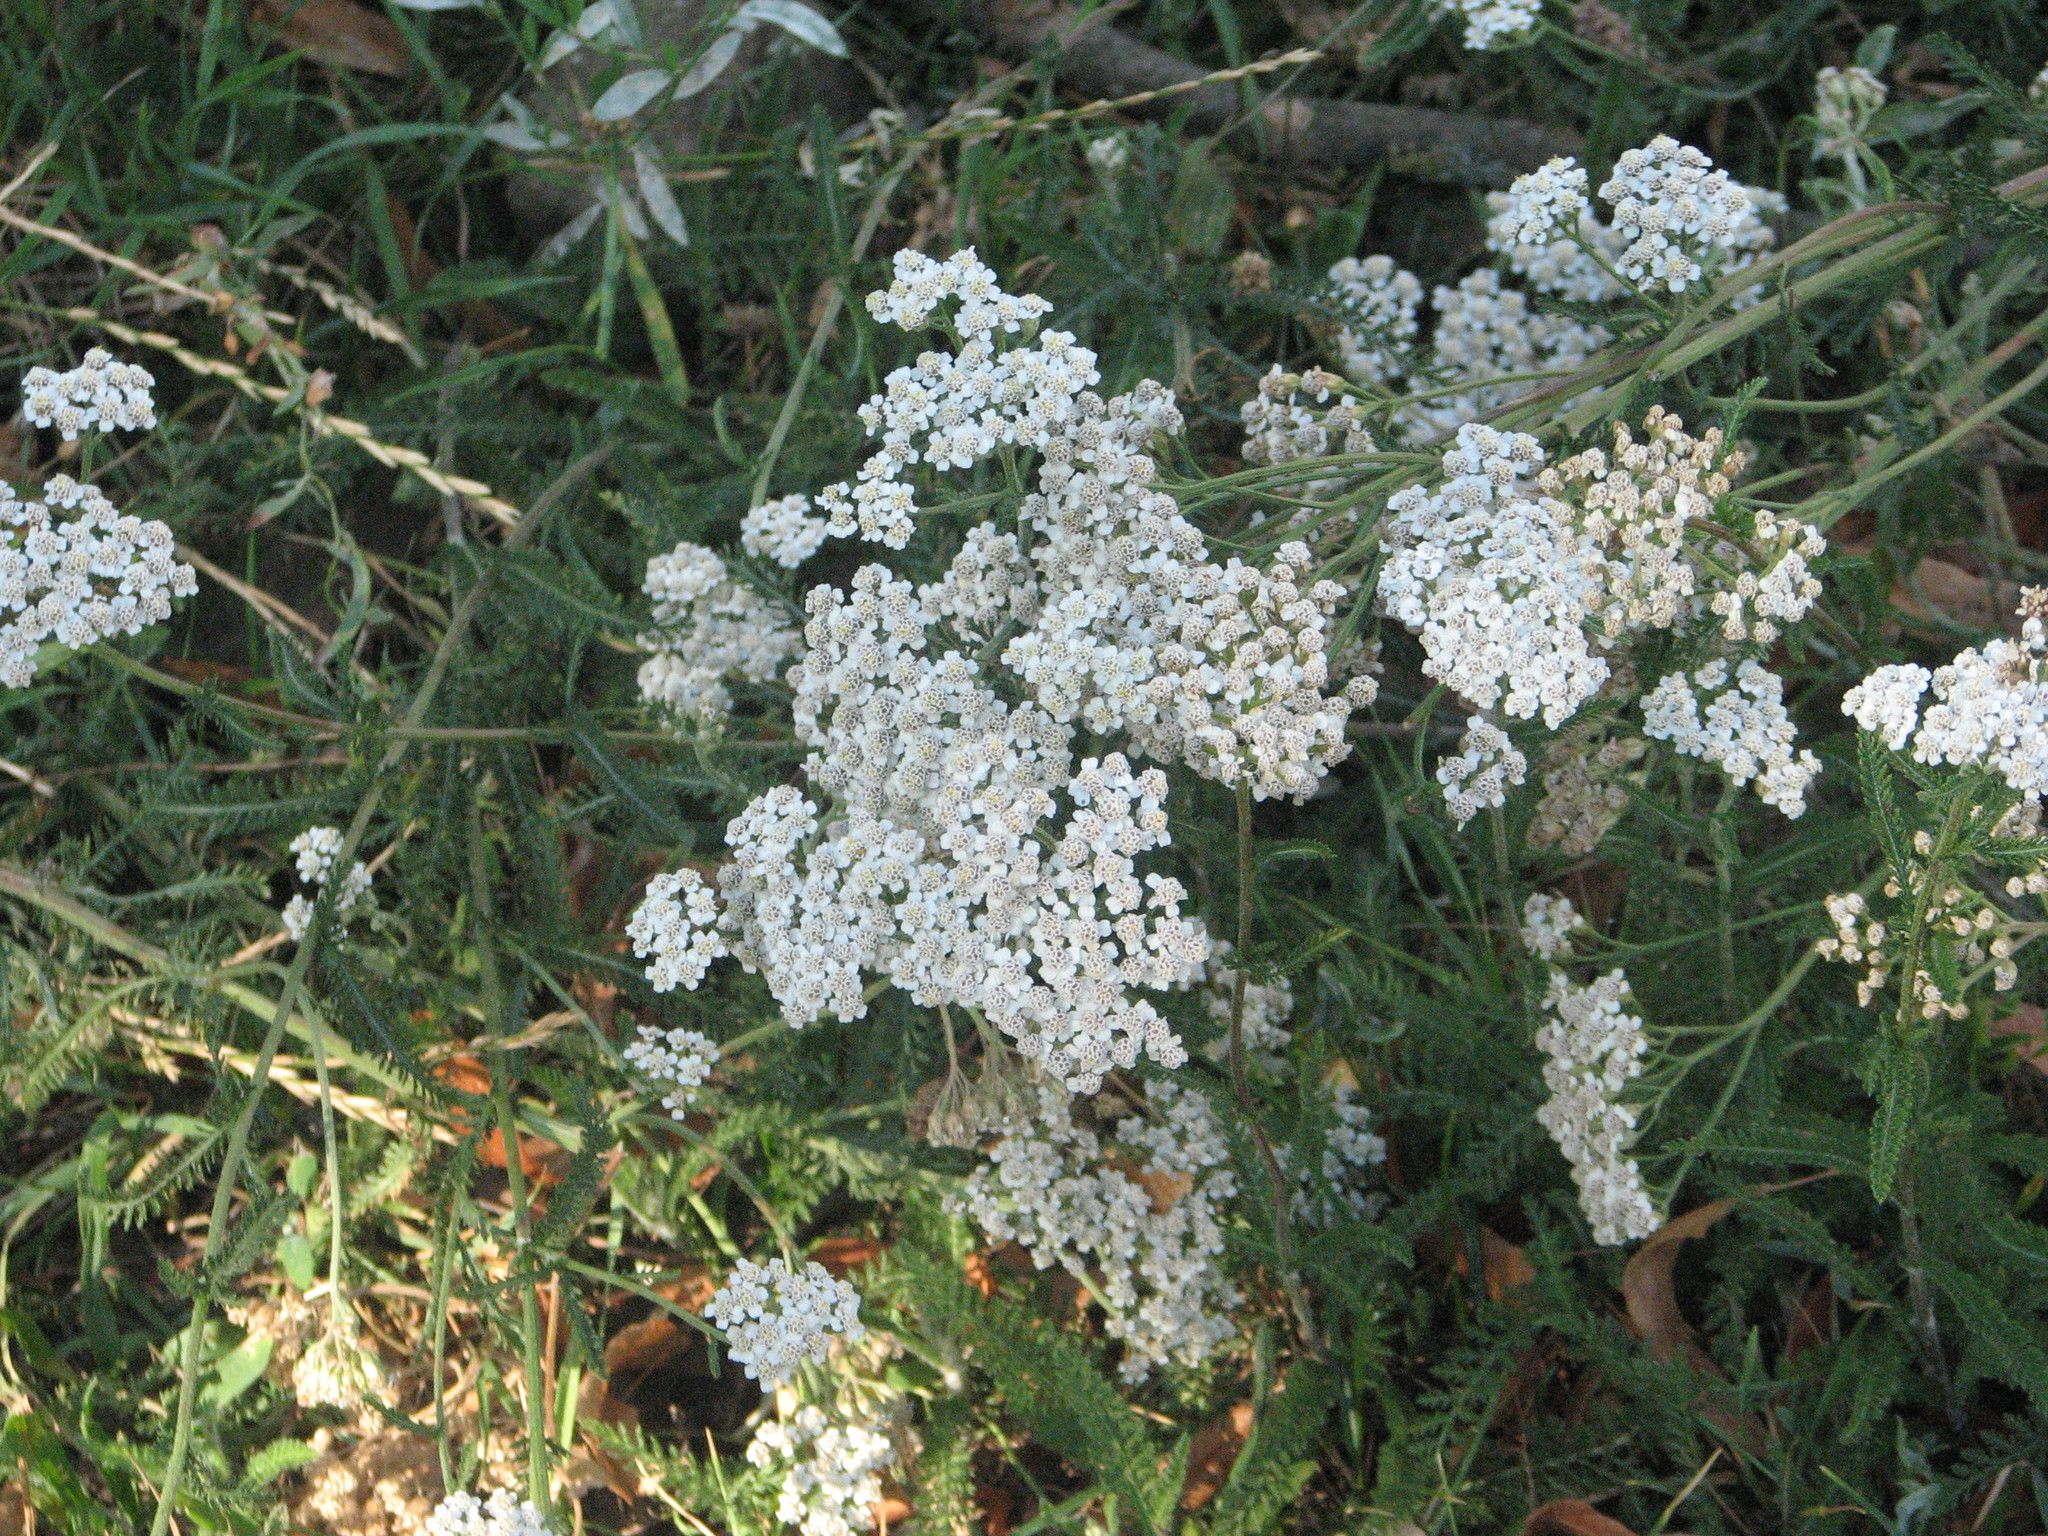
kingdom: Plantae
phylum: Tracheophyta
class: Magnoliopsida
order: Asterales
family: Asteraceae
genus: Achillea
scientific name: Achillea millefolium
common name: Yarrow
